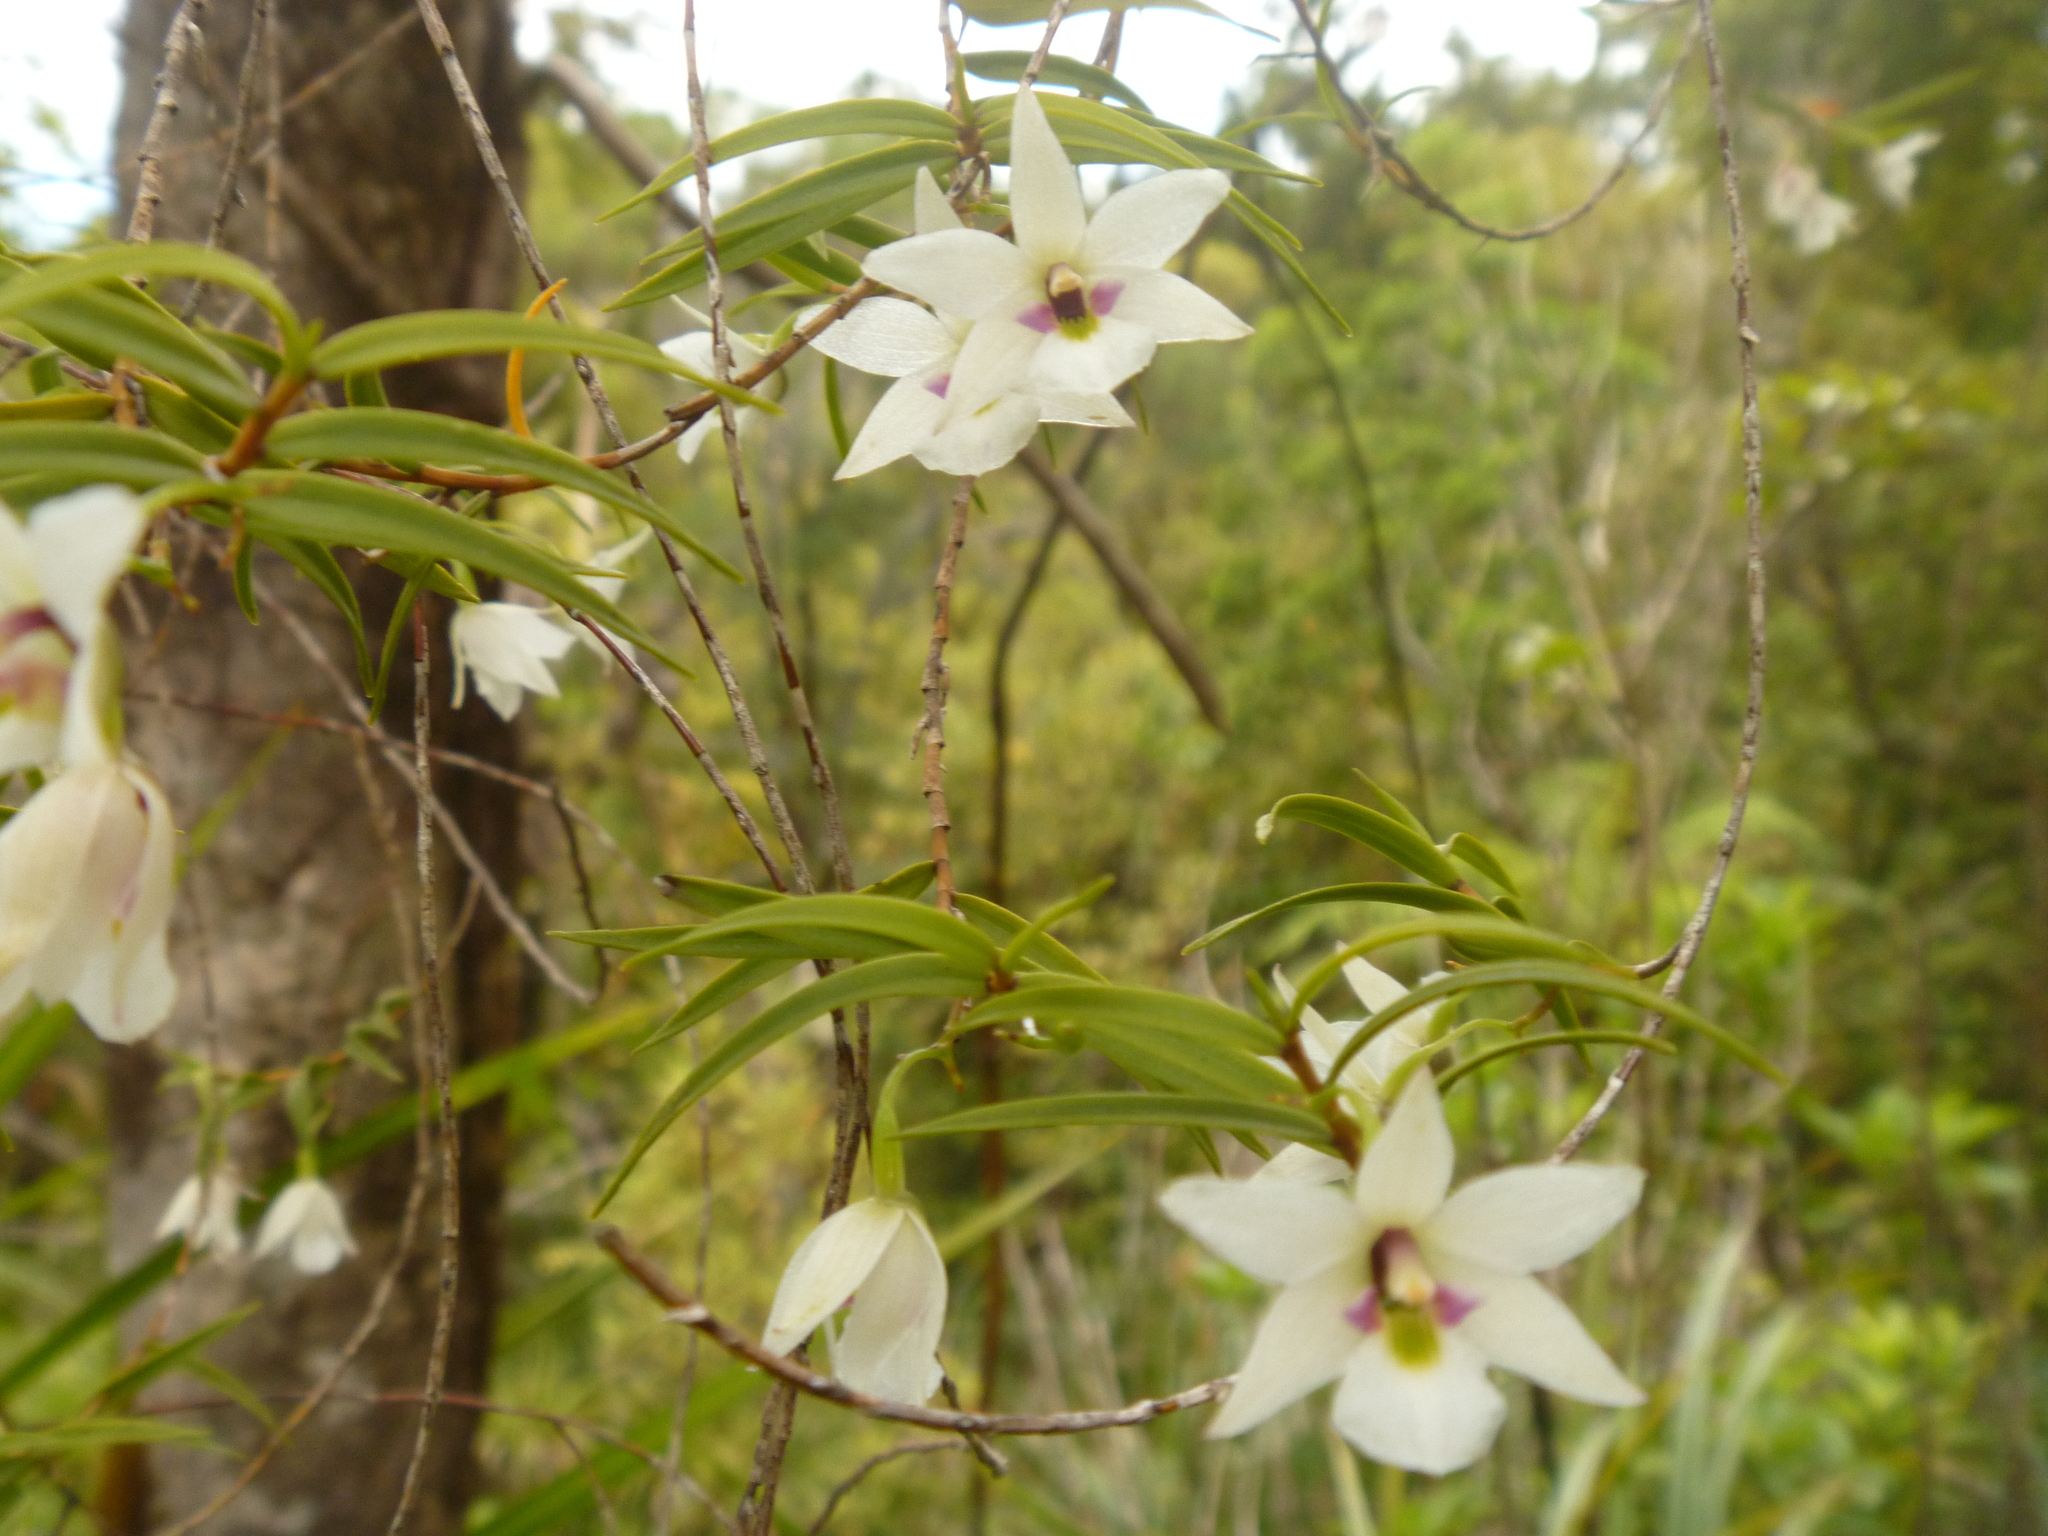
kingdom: Plantae
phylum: Tracheophyta
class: Liliopsida
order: Asparagales
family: Orchidaceae
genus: Dendrobium
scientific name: Dendrobium cunninghamii
